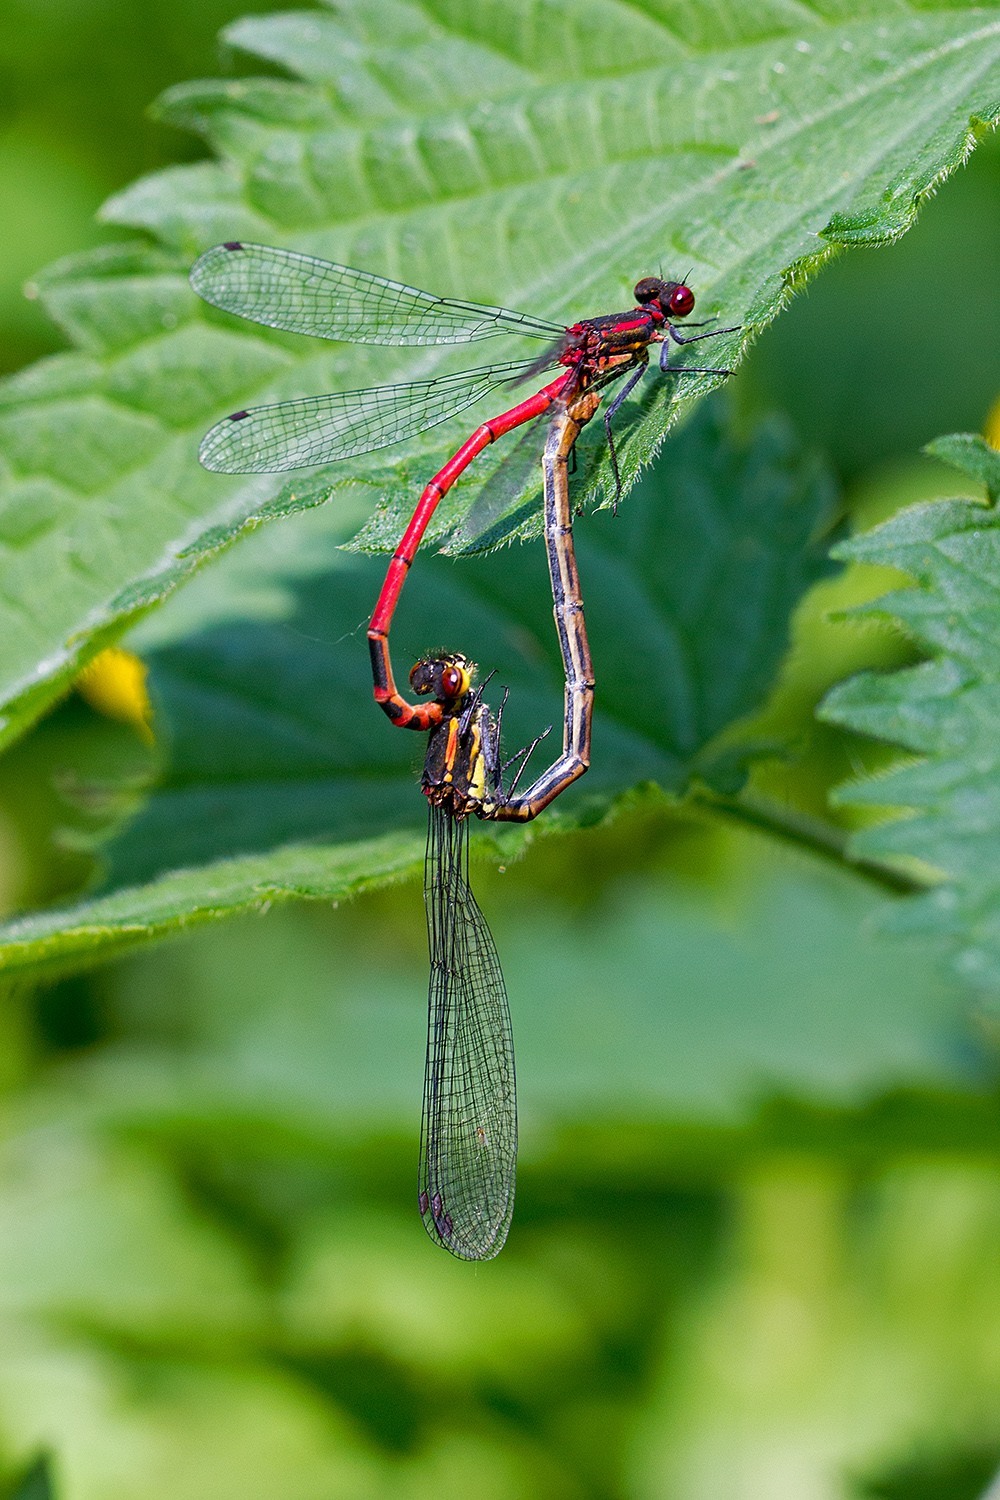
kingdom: Animalia
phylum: Arthropoda
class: Insecta
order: Odonata
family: Coenagrionidae
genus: Pyrrhosoma
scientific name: Pyrrhosoma nymphula
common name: Large red damsel
